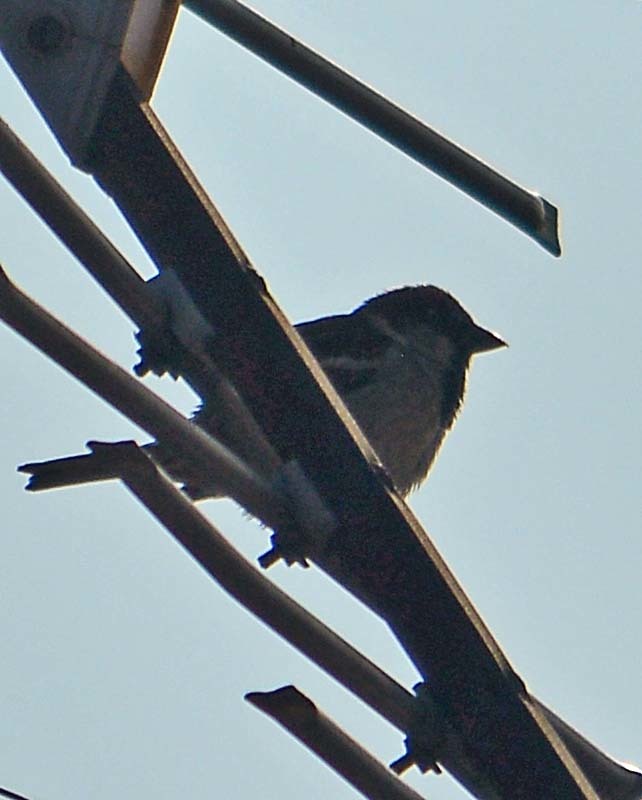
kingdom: Animalia
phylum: Chordata
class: Aves
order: Passeriformes
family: Passeridae
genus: Passer
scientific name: Passer domesticus
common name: House sparrow
